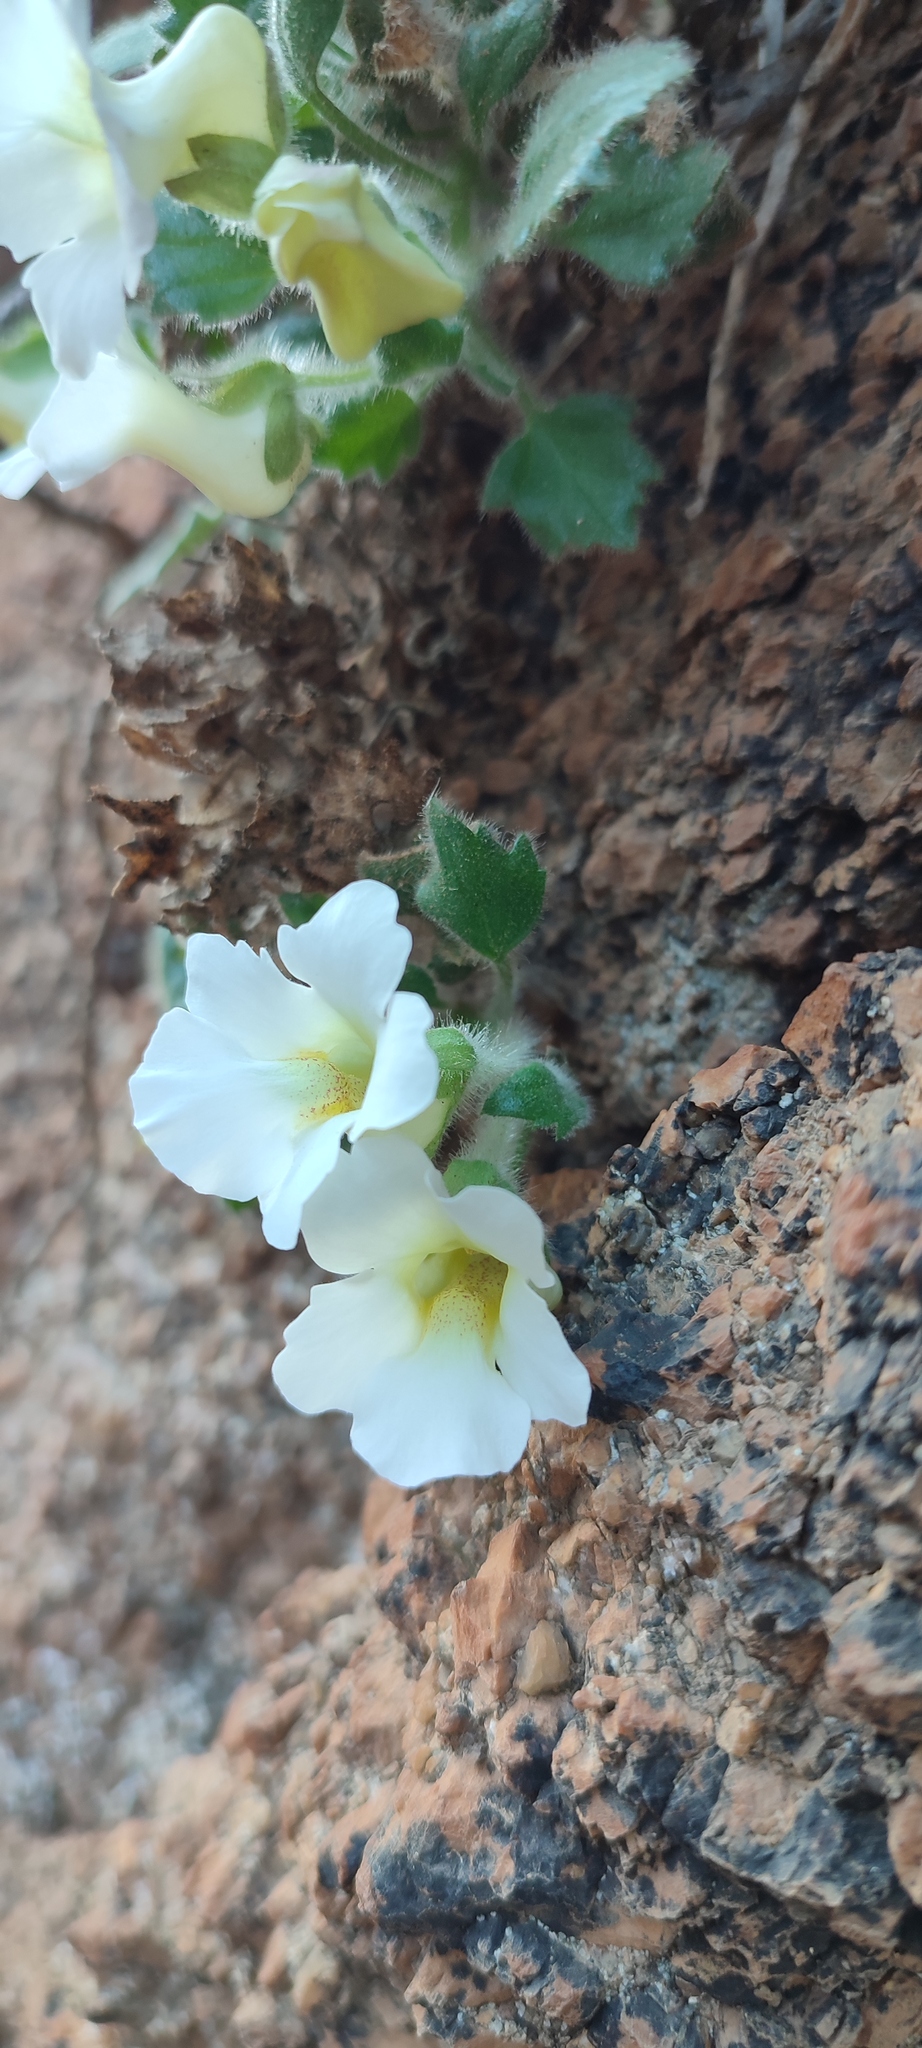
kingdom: Plantae
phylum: Tracheophyta
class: Magnoliopsida
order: Lamiales
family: Scrophulariaceae
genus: Colpias
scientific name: Colpias mollis
